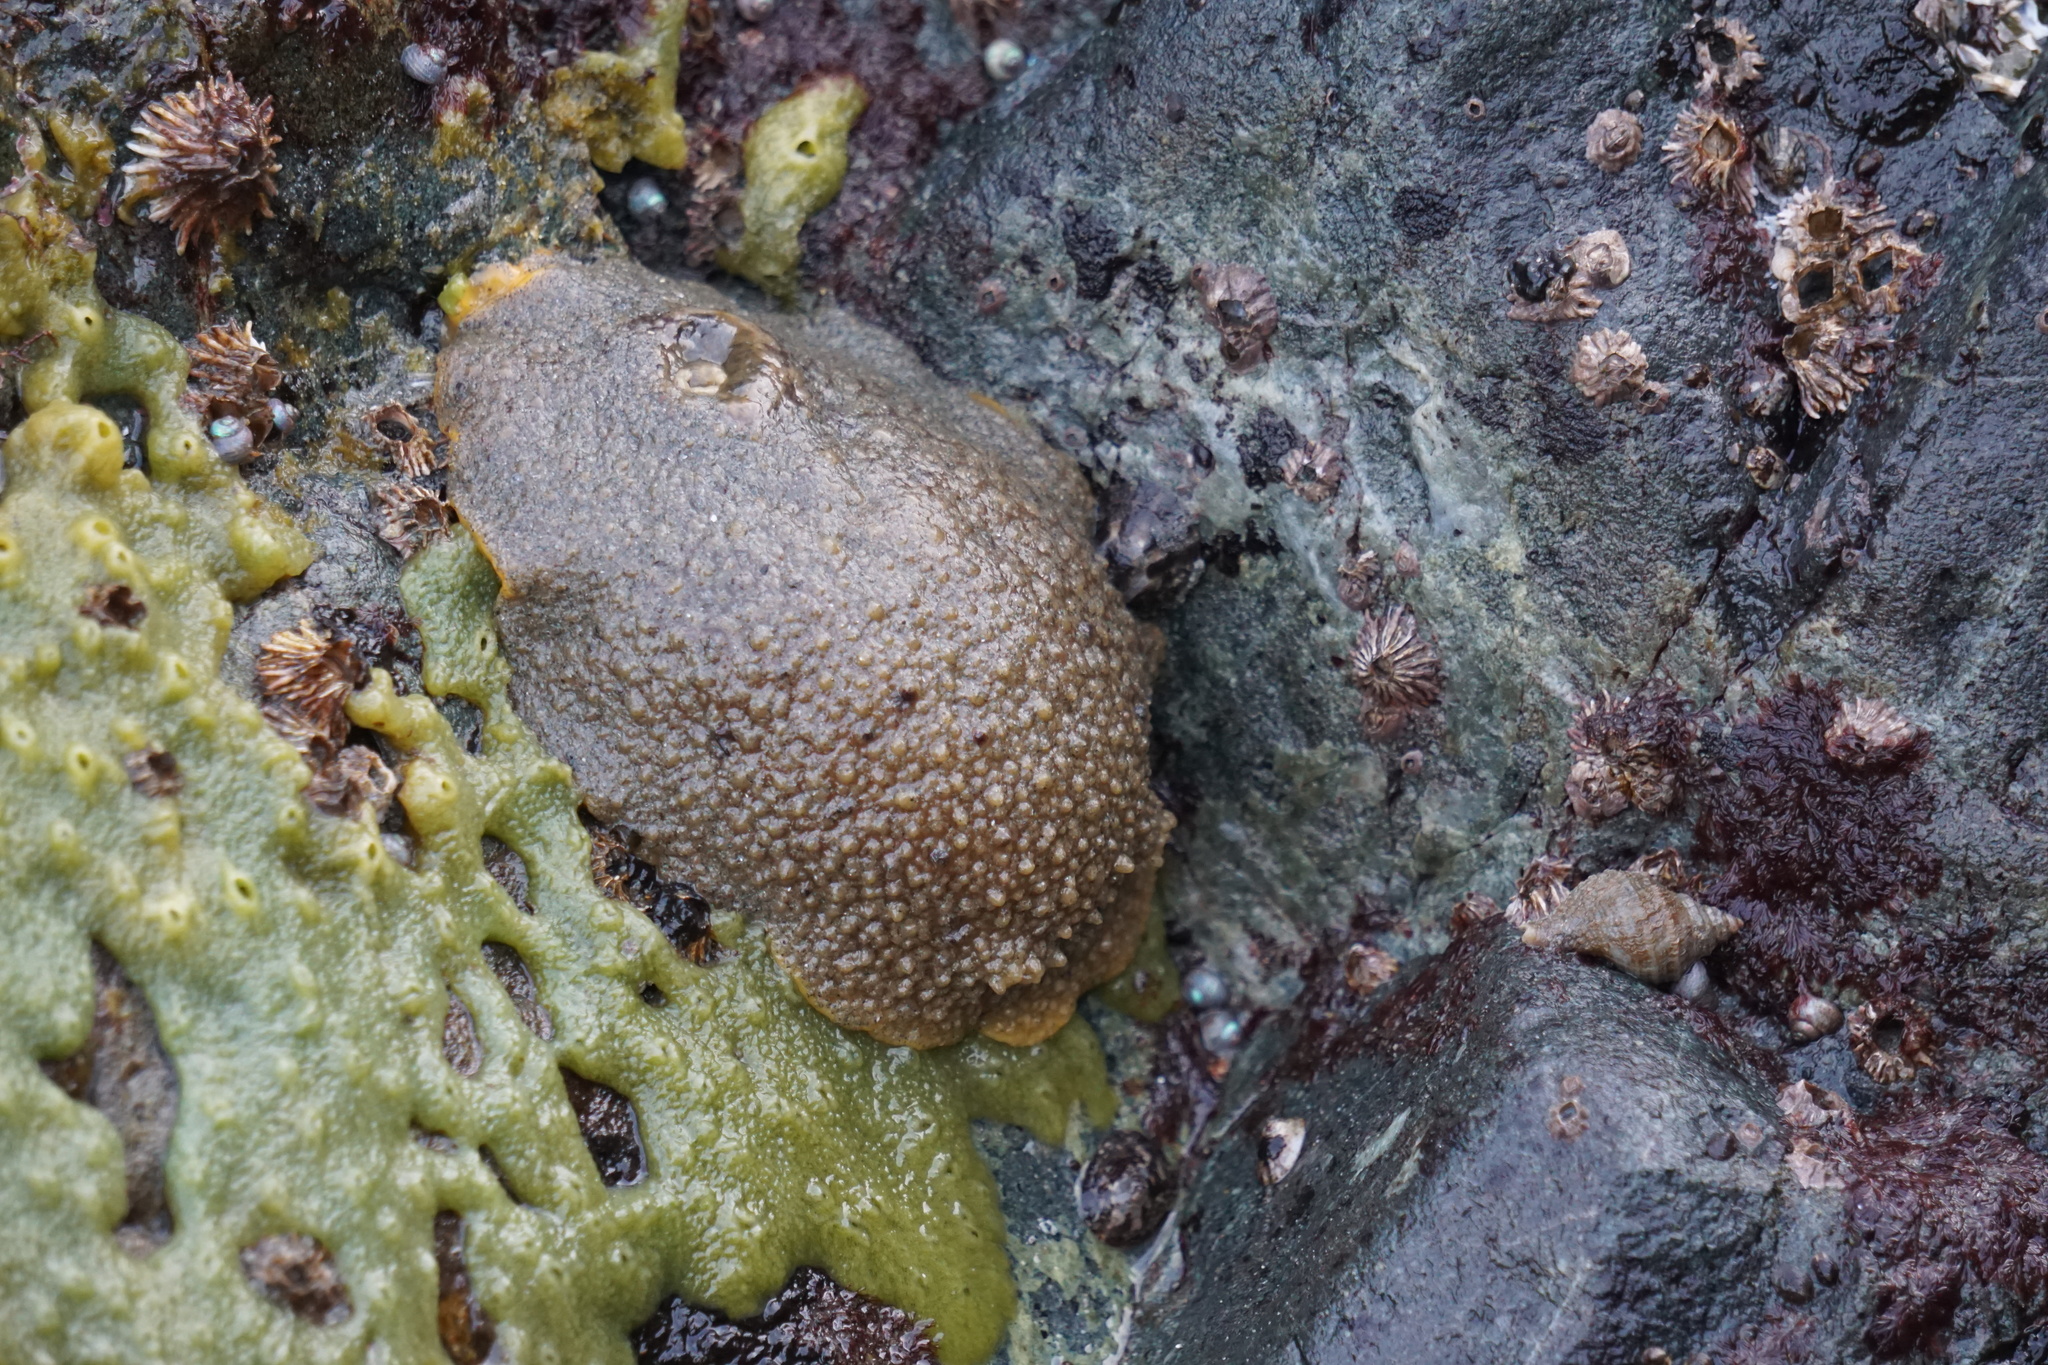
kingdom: Animalia
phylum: Mollusca
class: Gastropoda
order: Nudibranchia
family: Dorididae
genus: Doris
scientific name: Doris montereyensis
